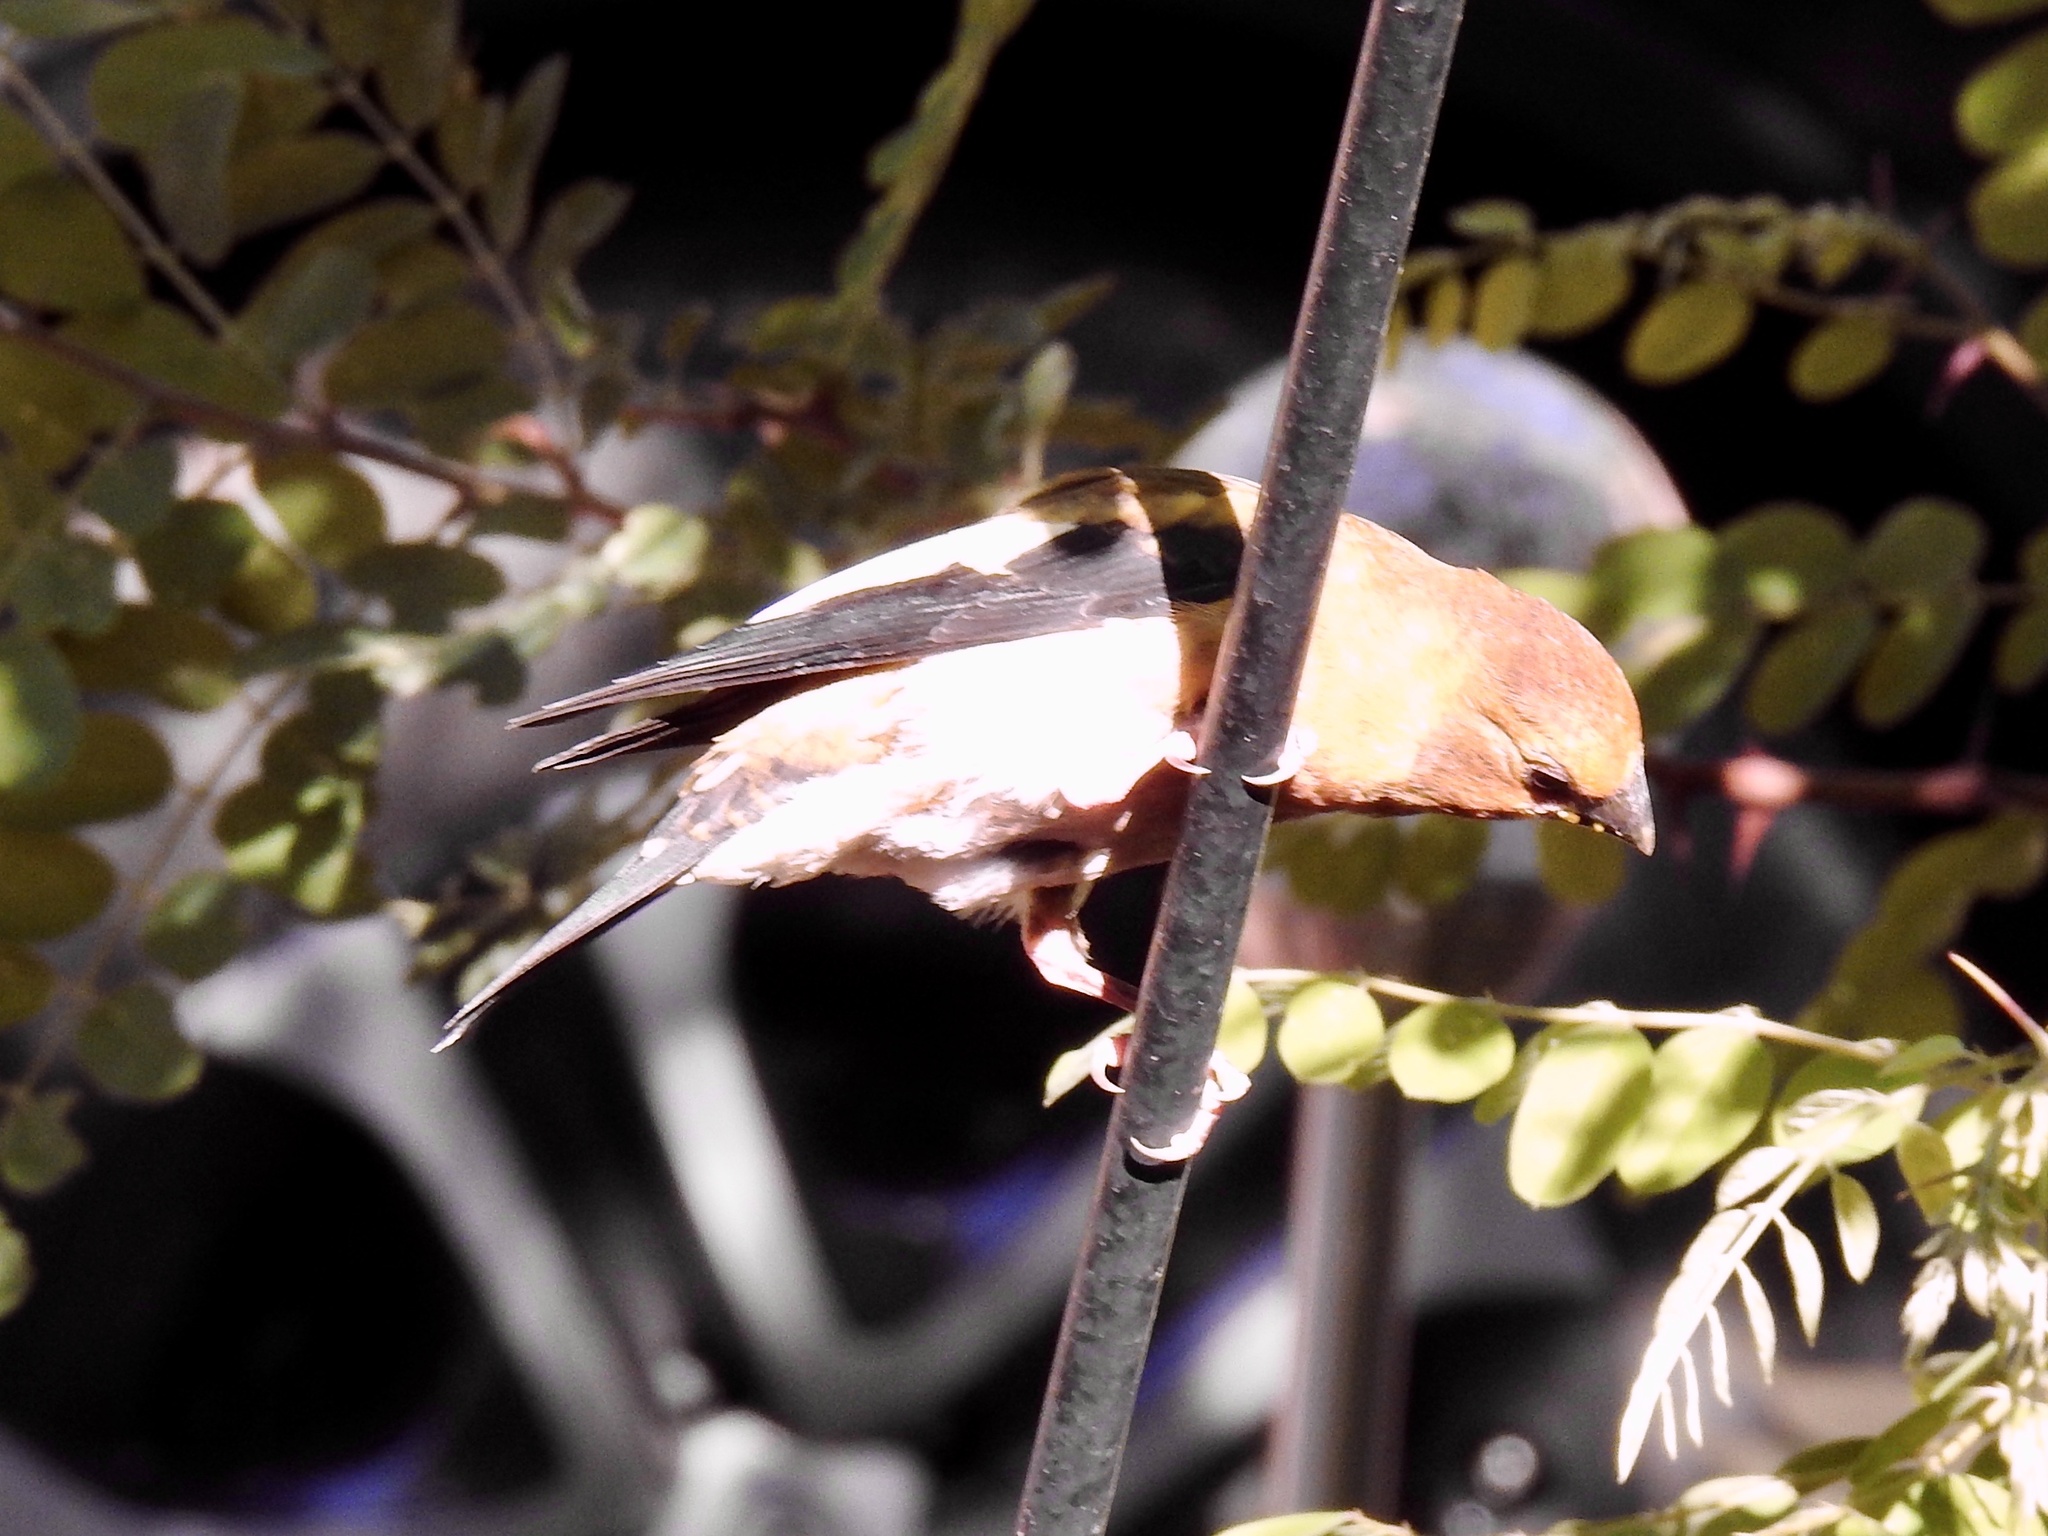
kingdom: Animalia
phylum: Chordata
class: Aves
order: Passeriformes
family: Fringillidae
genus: Hesperiphona
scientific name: Hesperiphona vespertina
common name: Evening grosbeak
